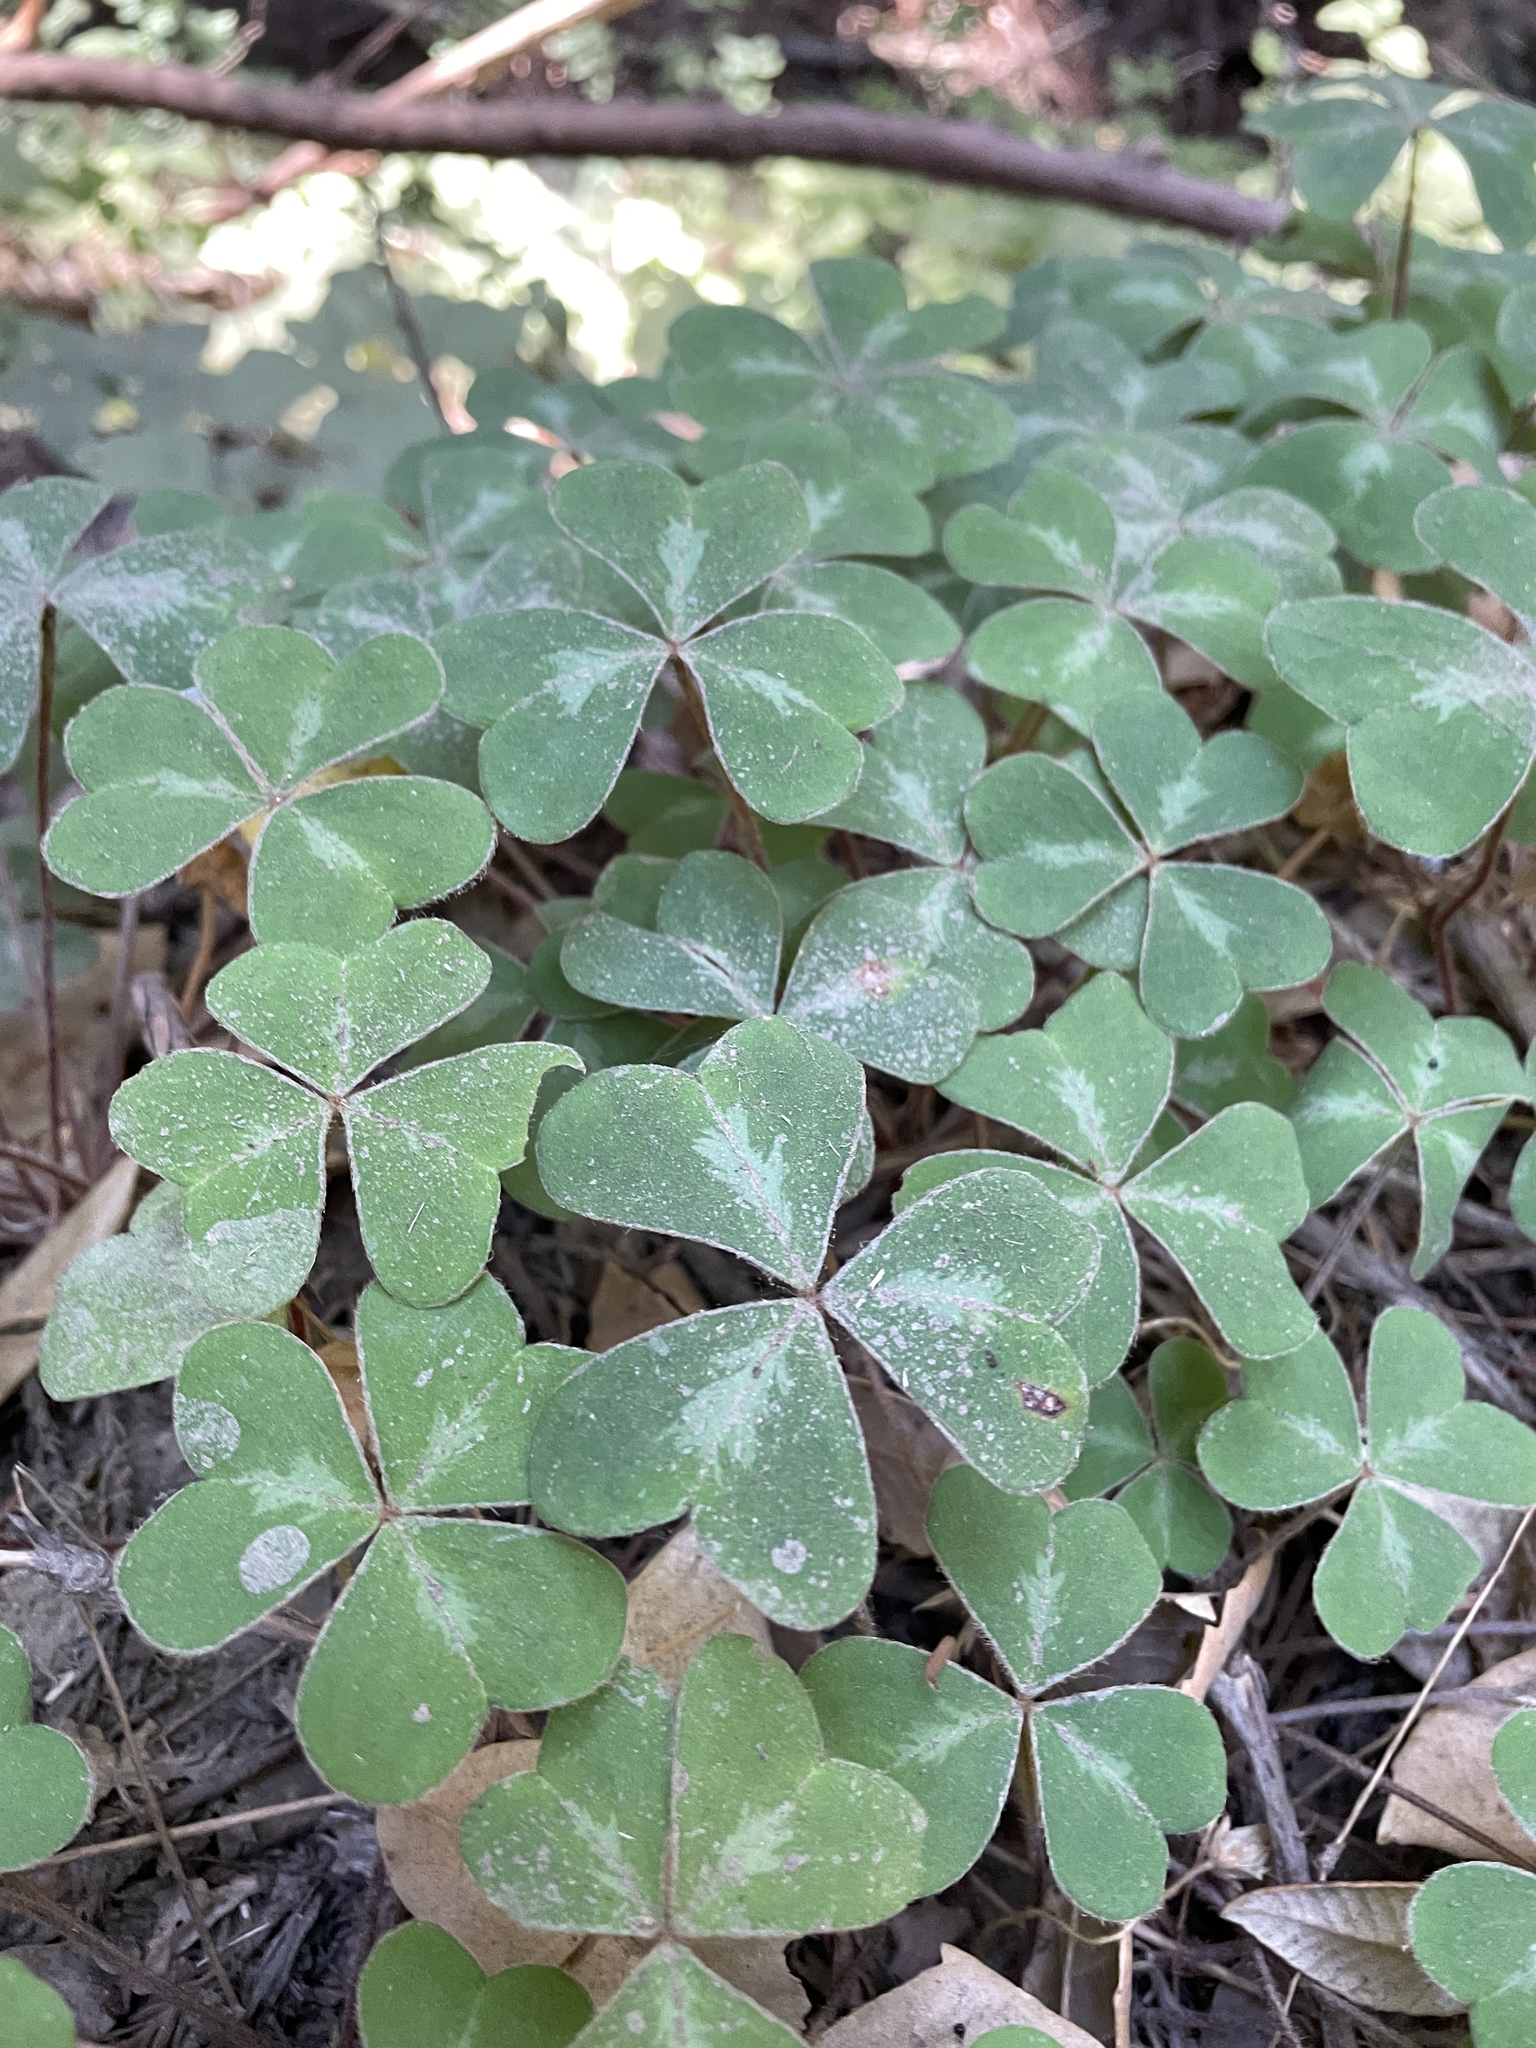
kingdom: Plantae
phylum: Tracheophyta
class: Magnoliopsida
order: Oxalidales
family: Oxalidaceae
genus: Oxalis
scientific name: Oxalis oregana
